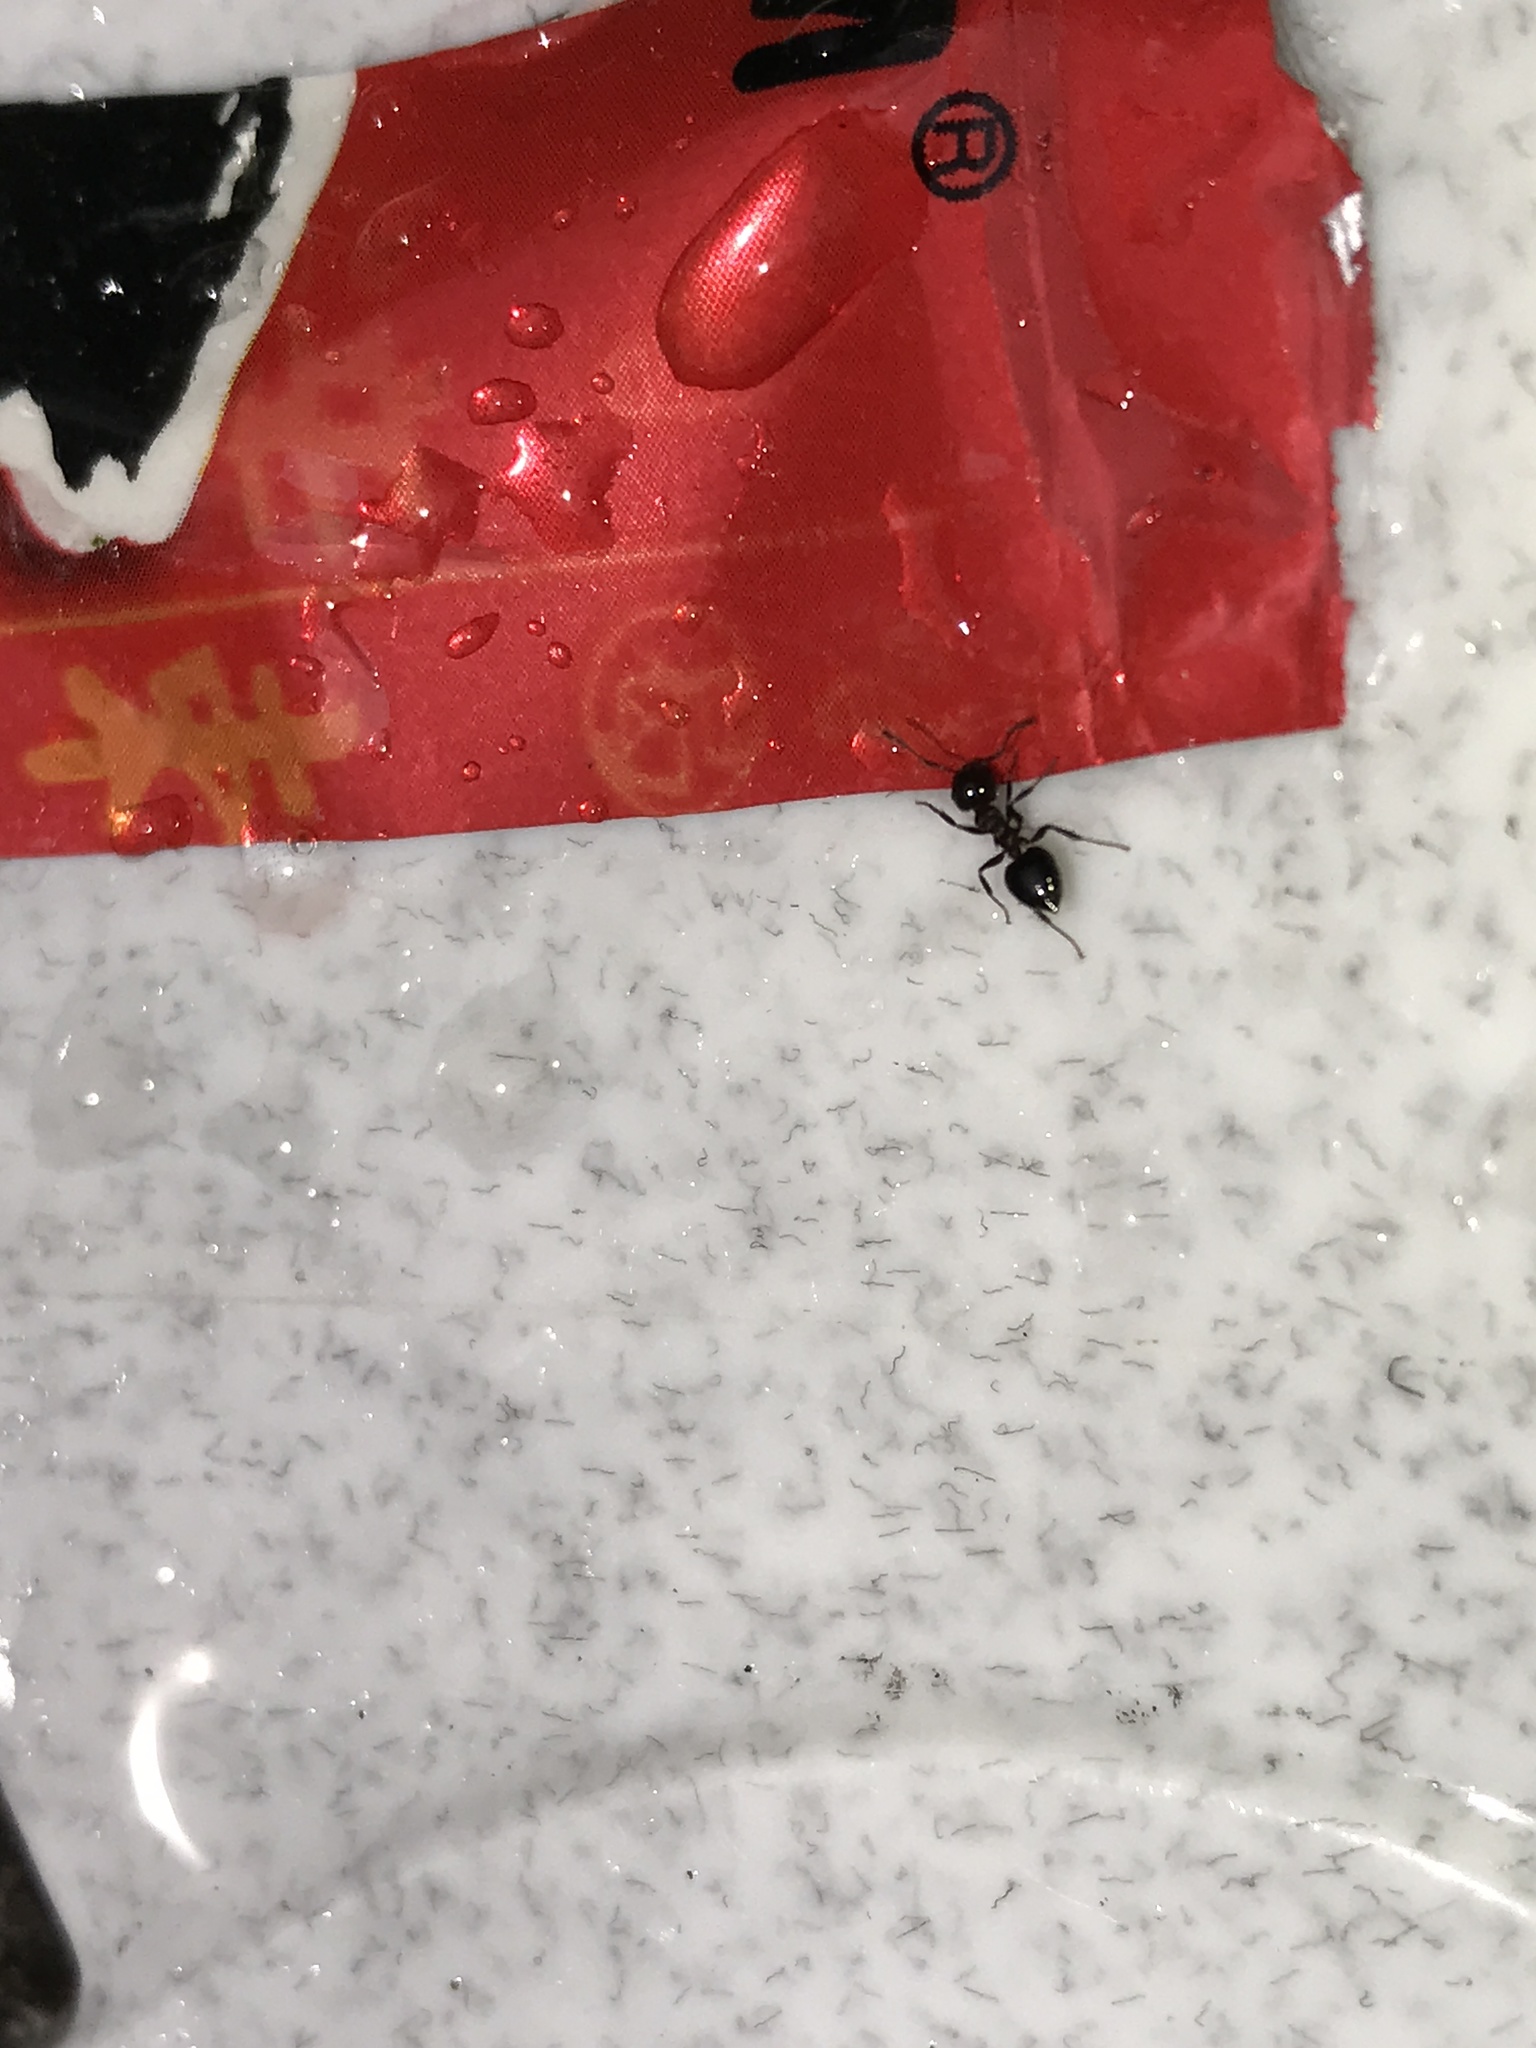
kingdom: Animalia
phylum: Arthropoda
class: Insecta
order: Hymenoptera
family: Formicidae
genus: Crematogaster
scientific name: Crematogaster cerasi
